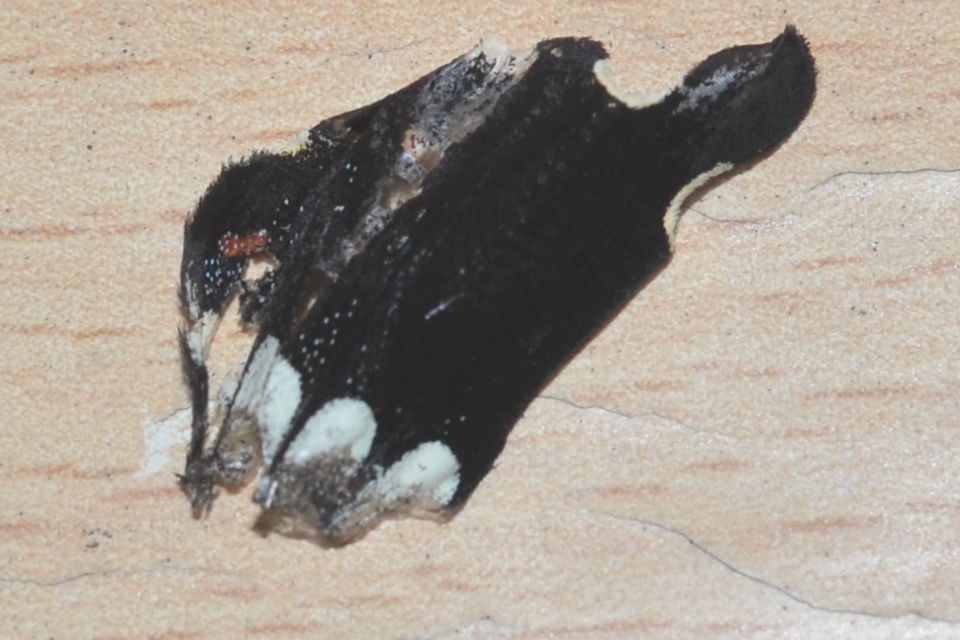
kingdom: Animalia
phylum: Arthropoda
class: Insecta
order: Lepidoptera
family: Papilionidae
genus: Papilio
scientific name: Papilio polytes
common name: Common mormon
